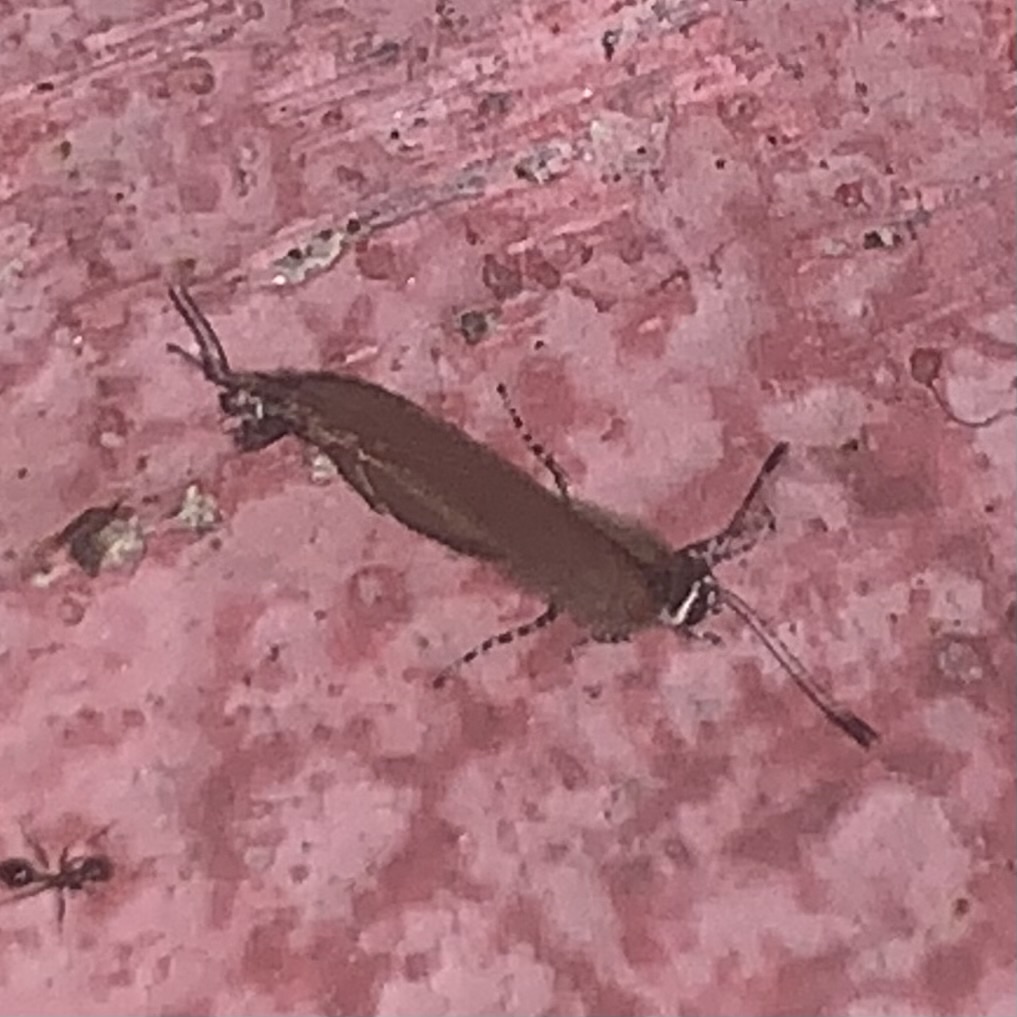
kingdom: Animalia
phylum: Arthropoda
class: Insecta
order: Lepidoptera
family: Lycaenidae
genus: Calycopis
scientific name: Calycopis cecrops
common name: Red-banded hairstreak
